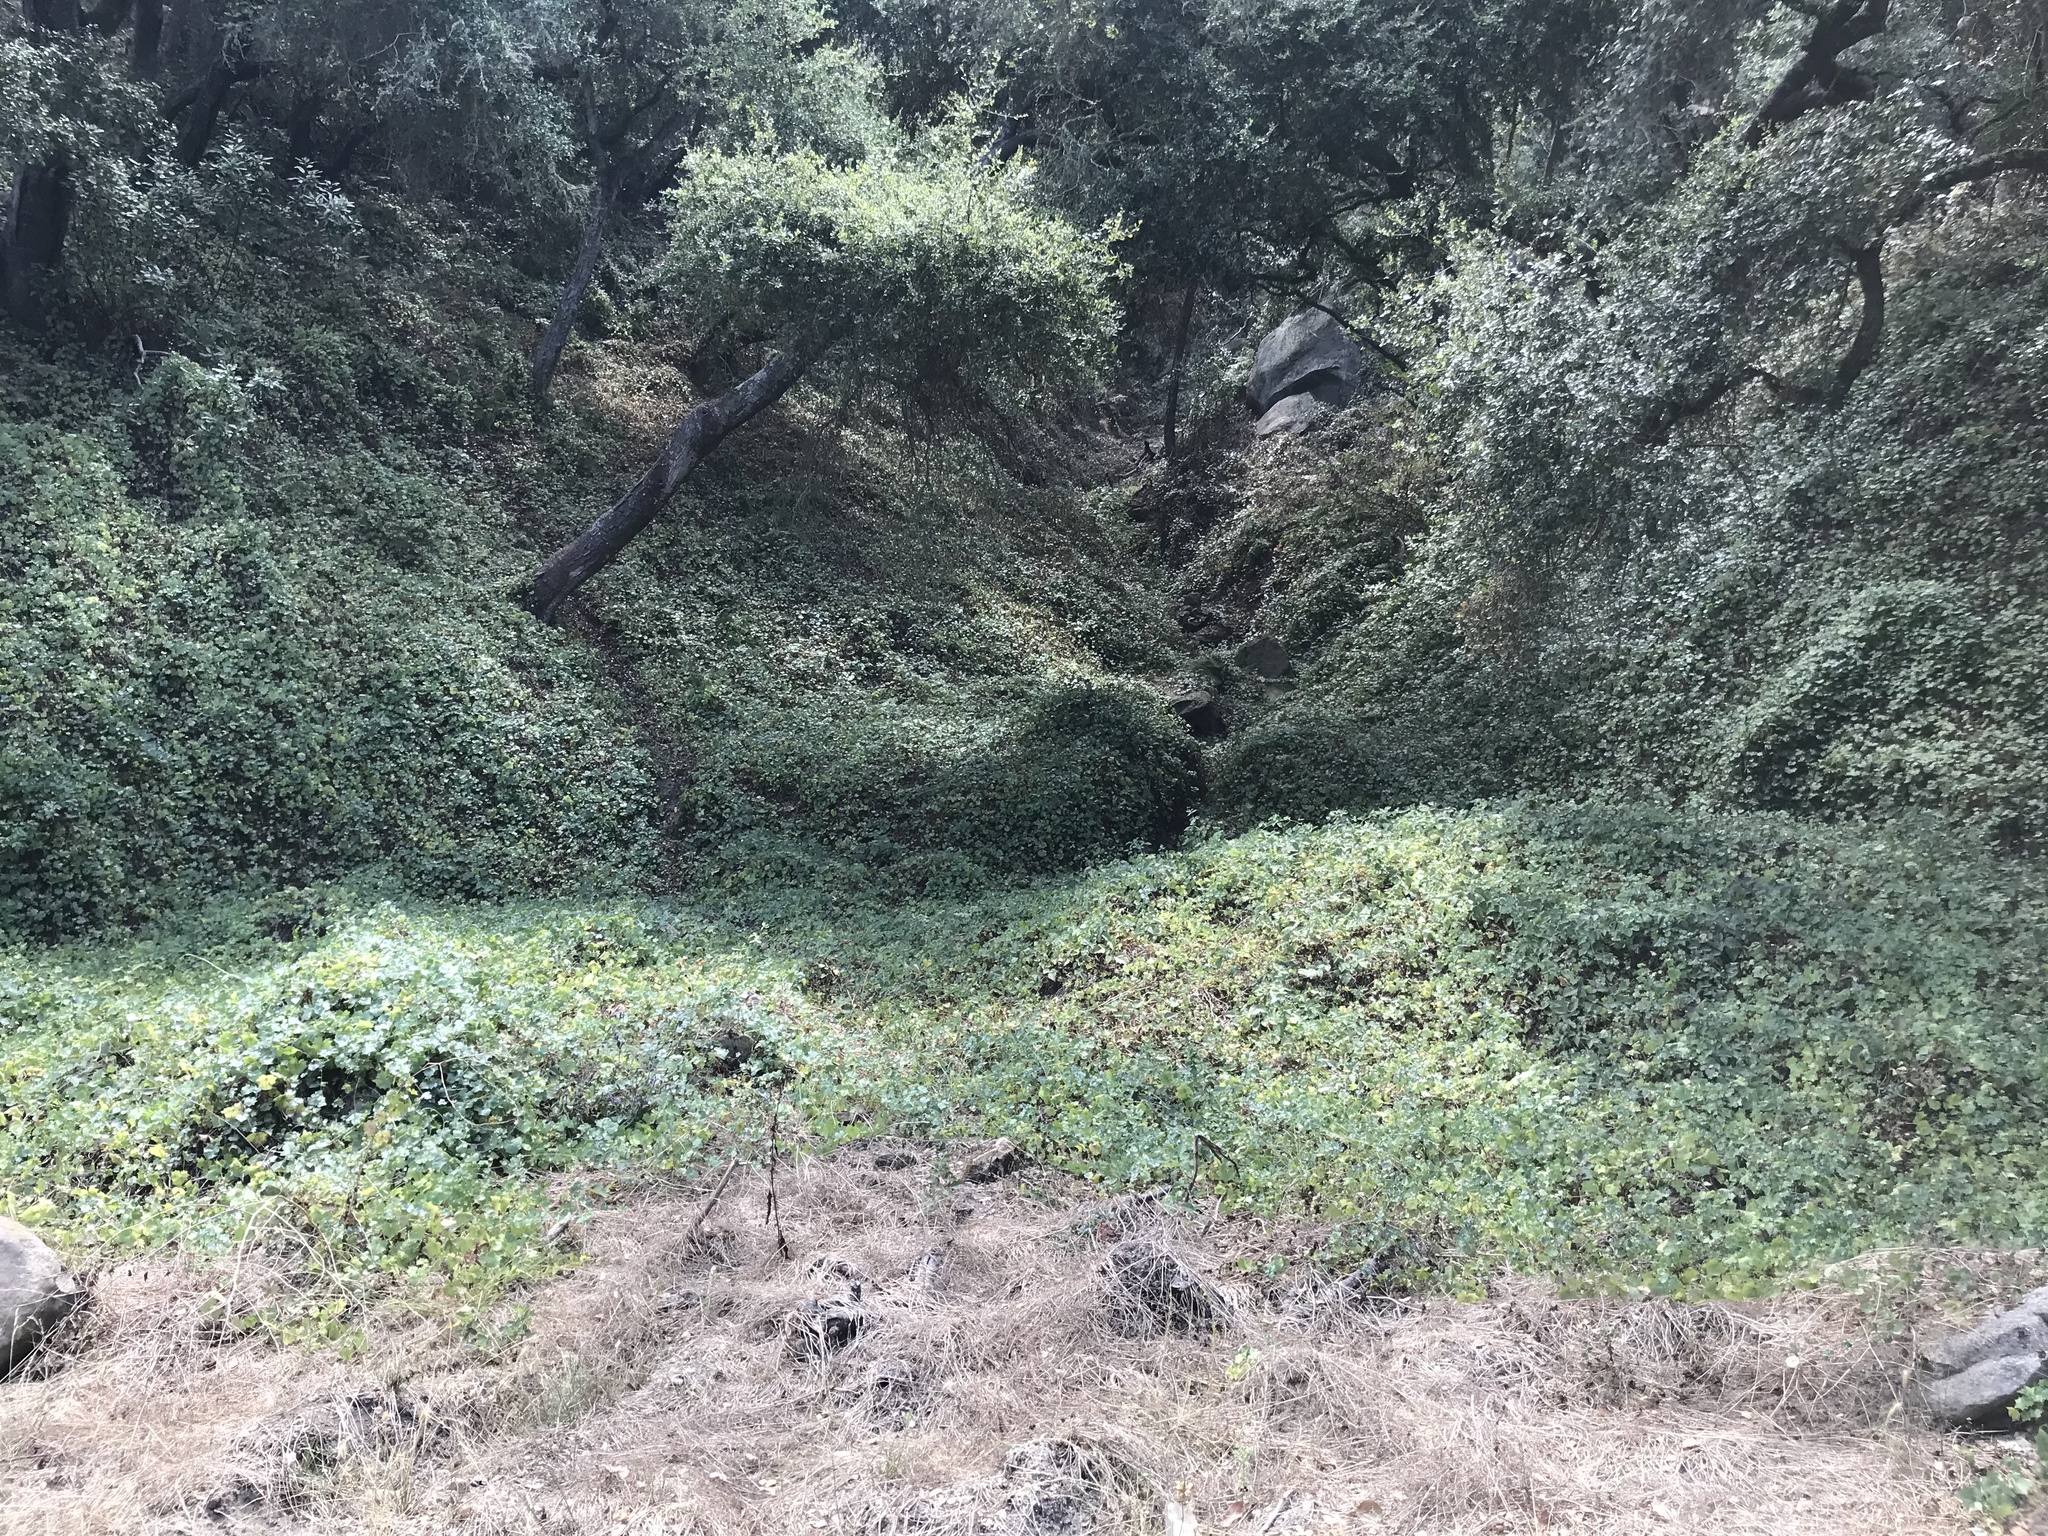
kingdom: Plantae
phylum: Tracheophyta
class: Magnoliopsida
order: Asterales
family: Asteraceae
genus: Delairea
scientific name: Delairea odorata
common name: Cape-ivy
